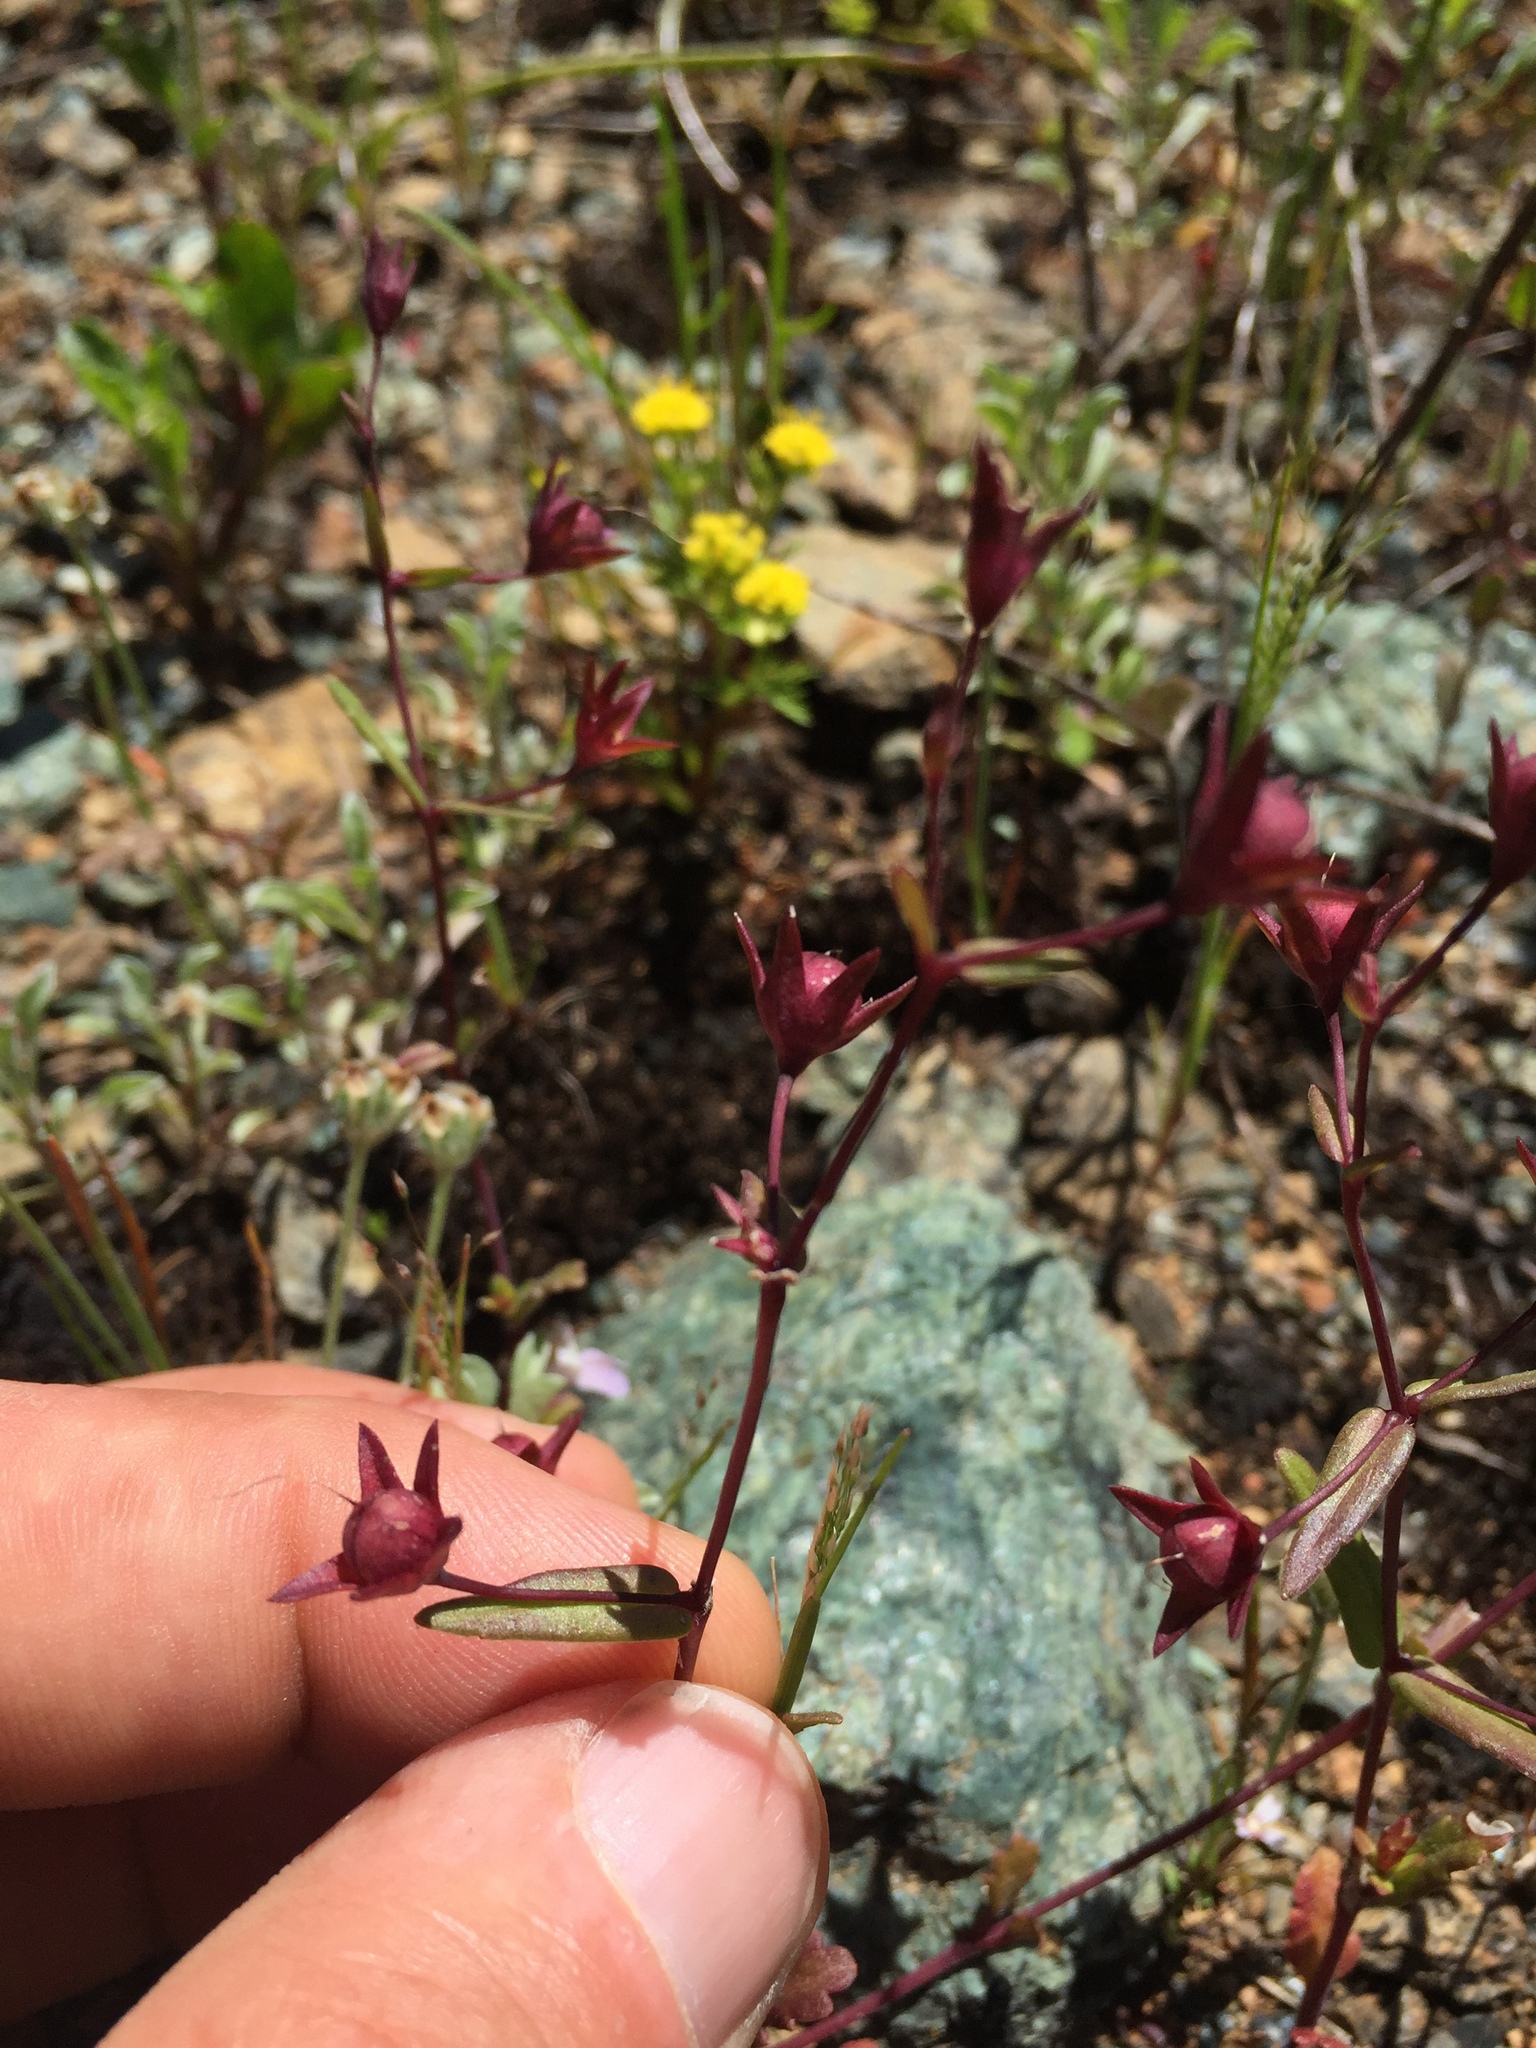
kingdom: Plantae
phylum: Tracheophyta
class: Magnoliopsida
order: Lamiales
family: Plantaginaceae
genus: Collinsia
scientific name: Collinsia sparsiflora
